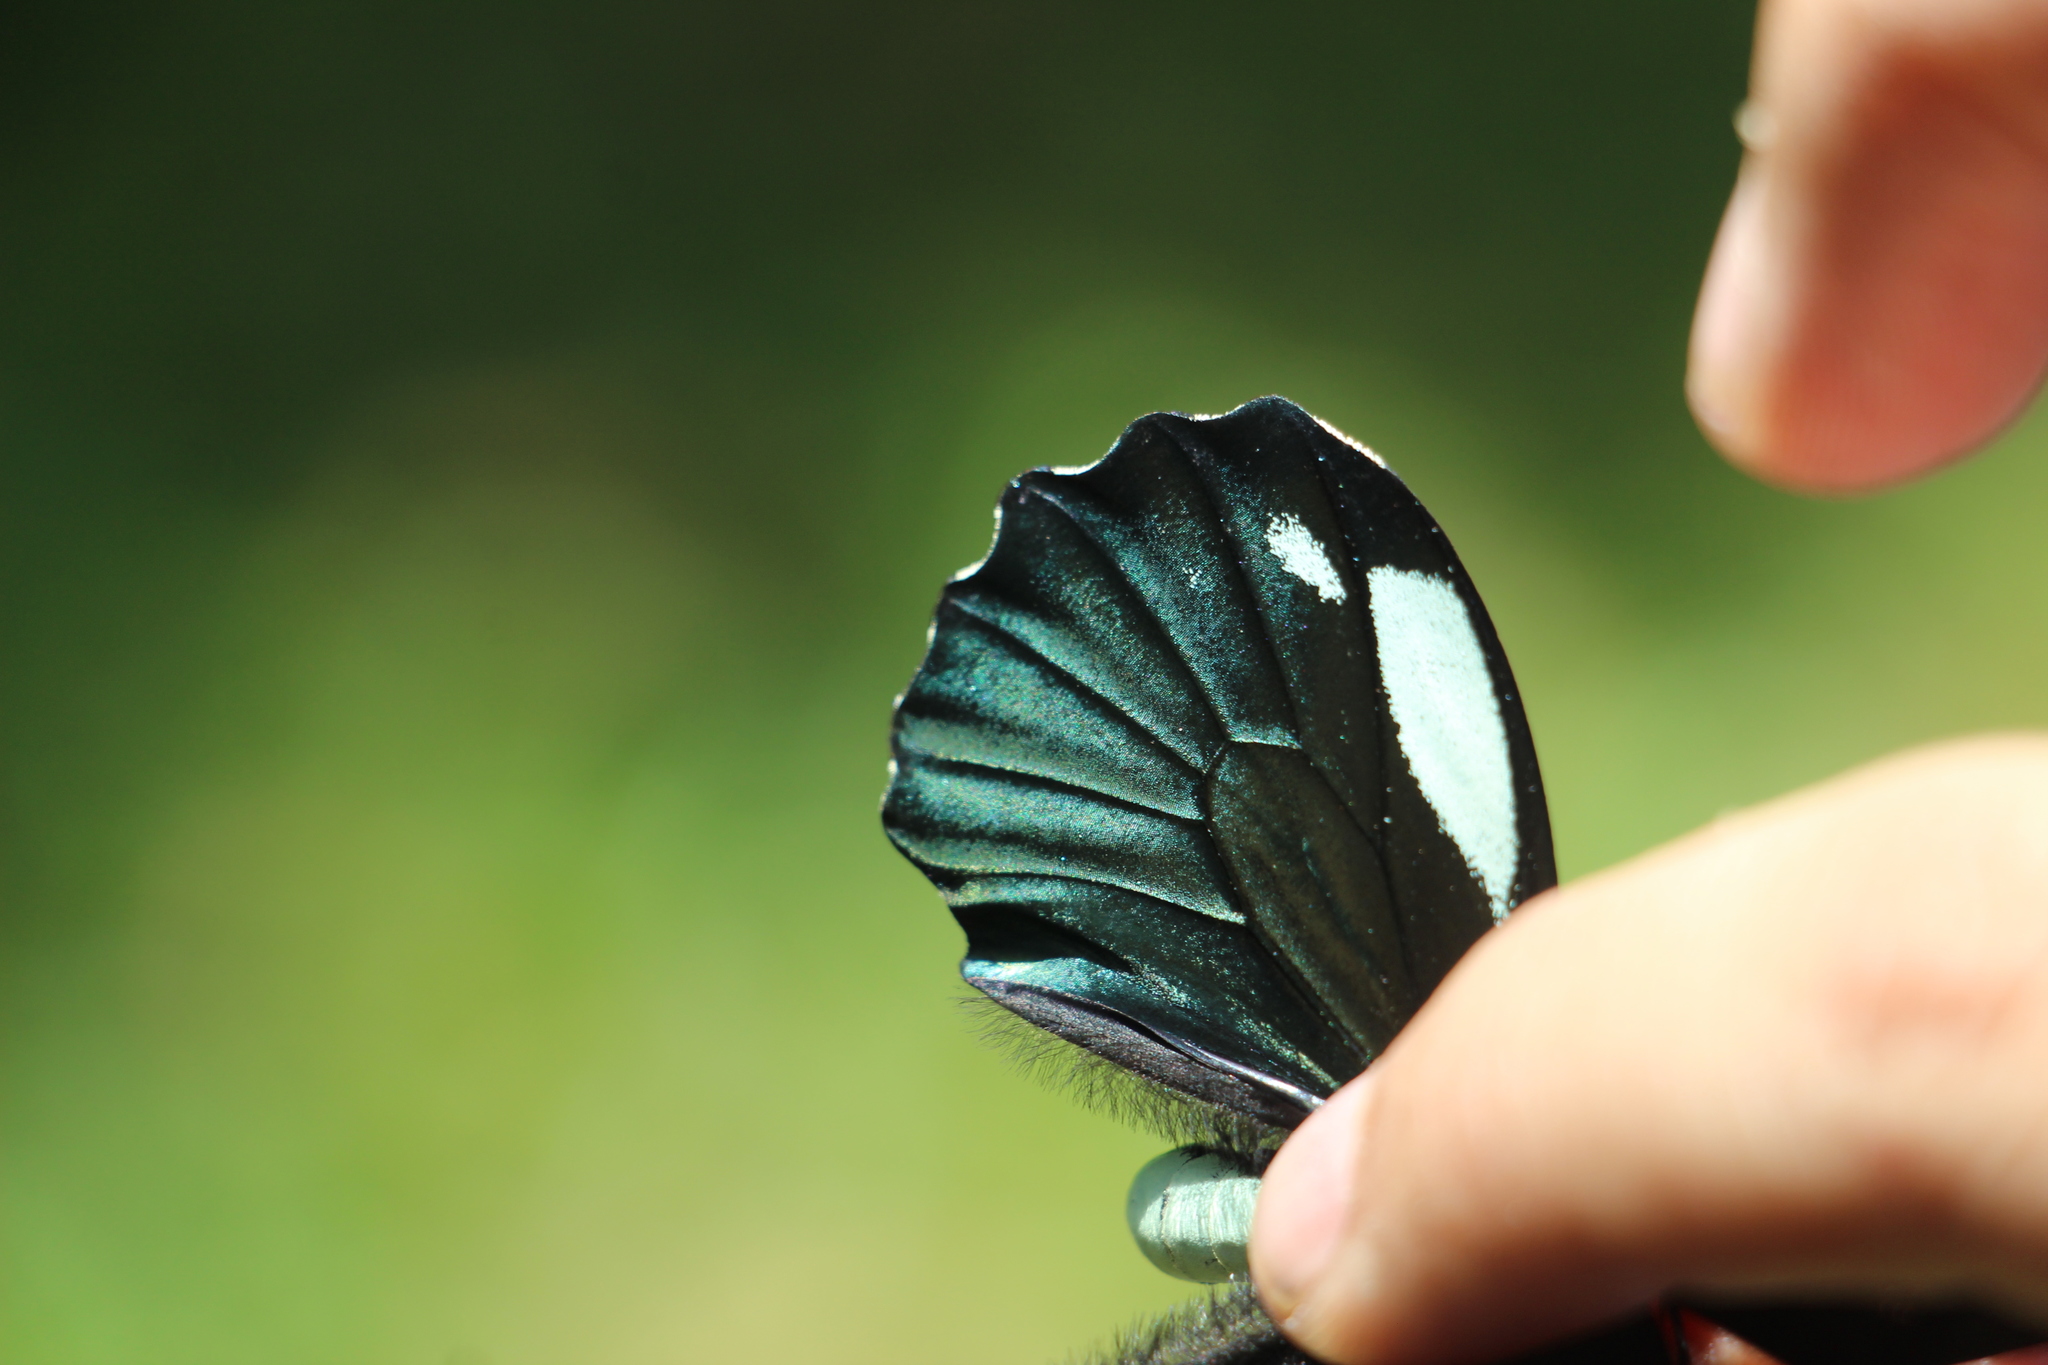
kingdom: Animalia
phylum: Arthropoda
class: Insecta
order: Lepidoptera
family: Papilionidae
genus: Battus
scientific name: Battus crassus
